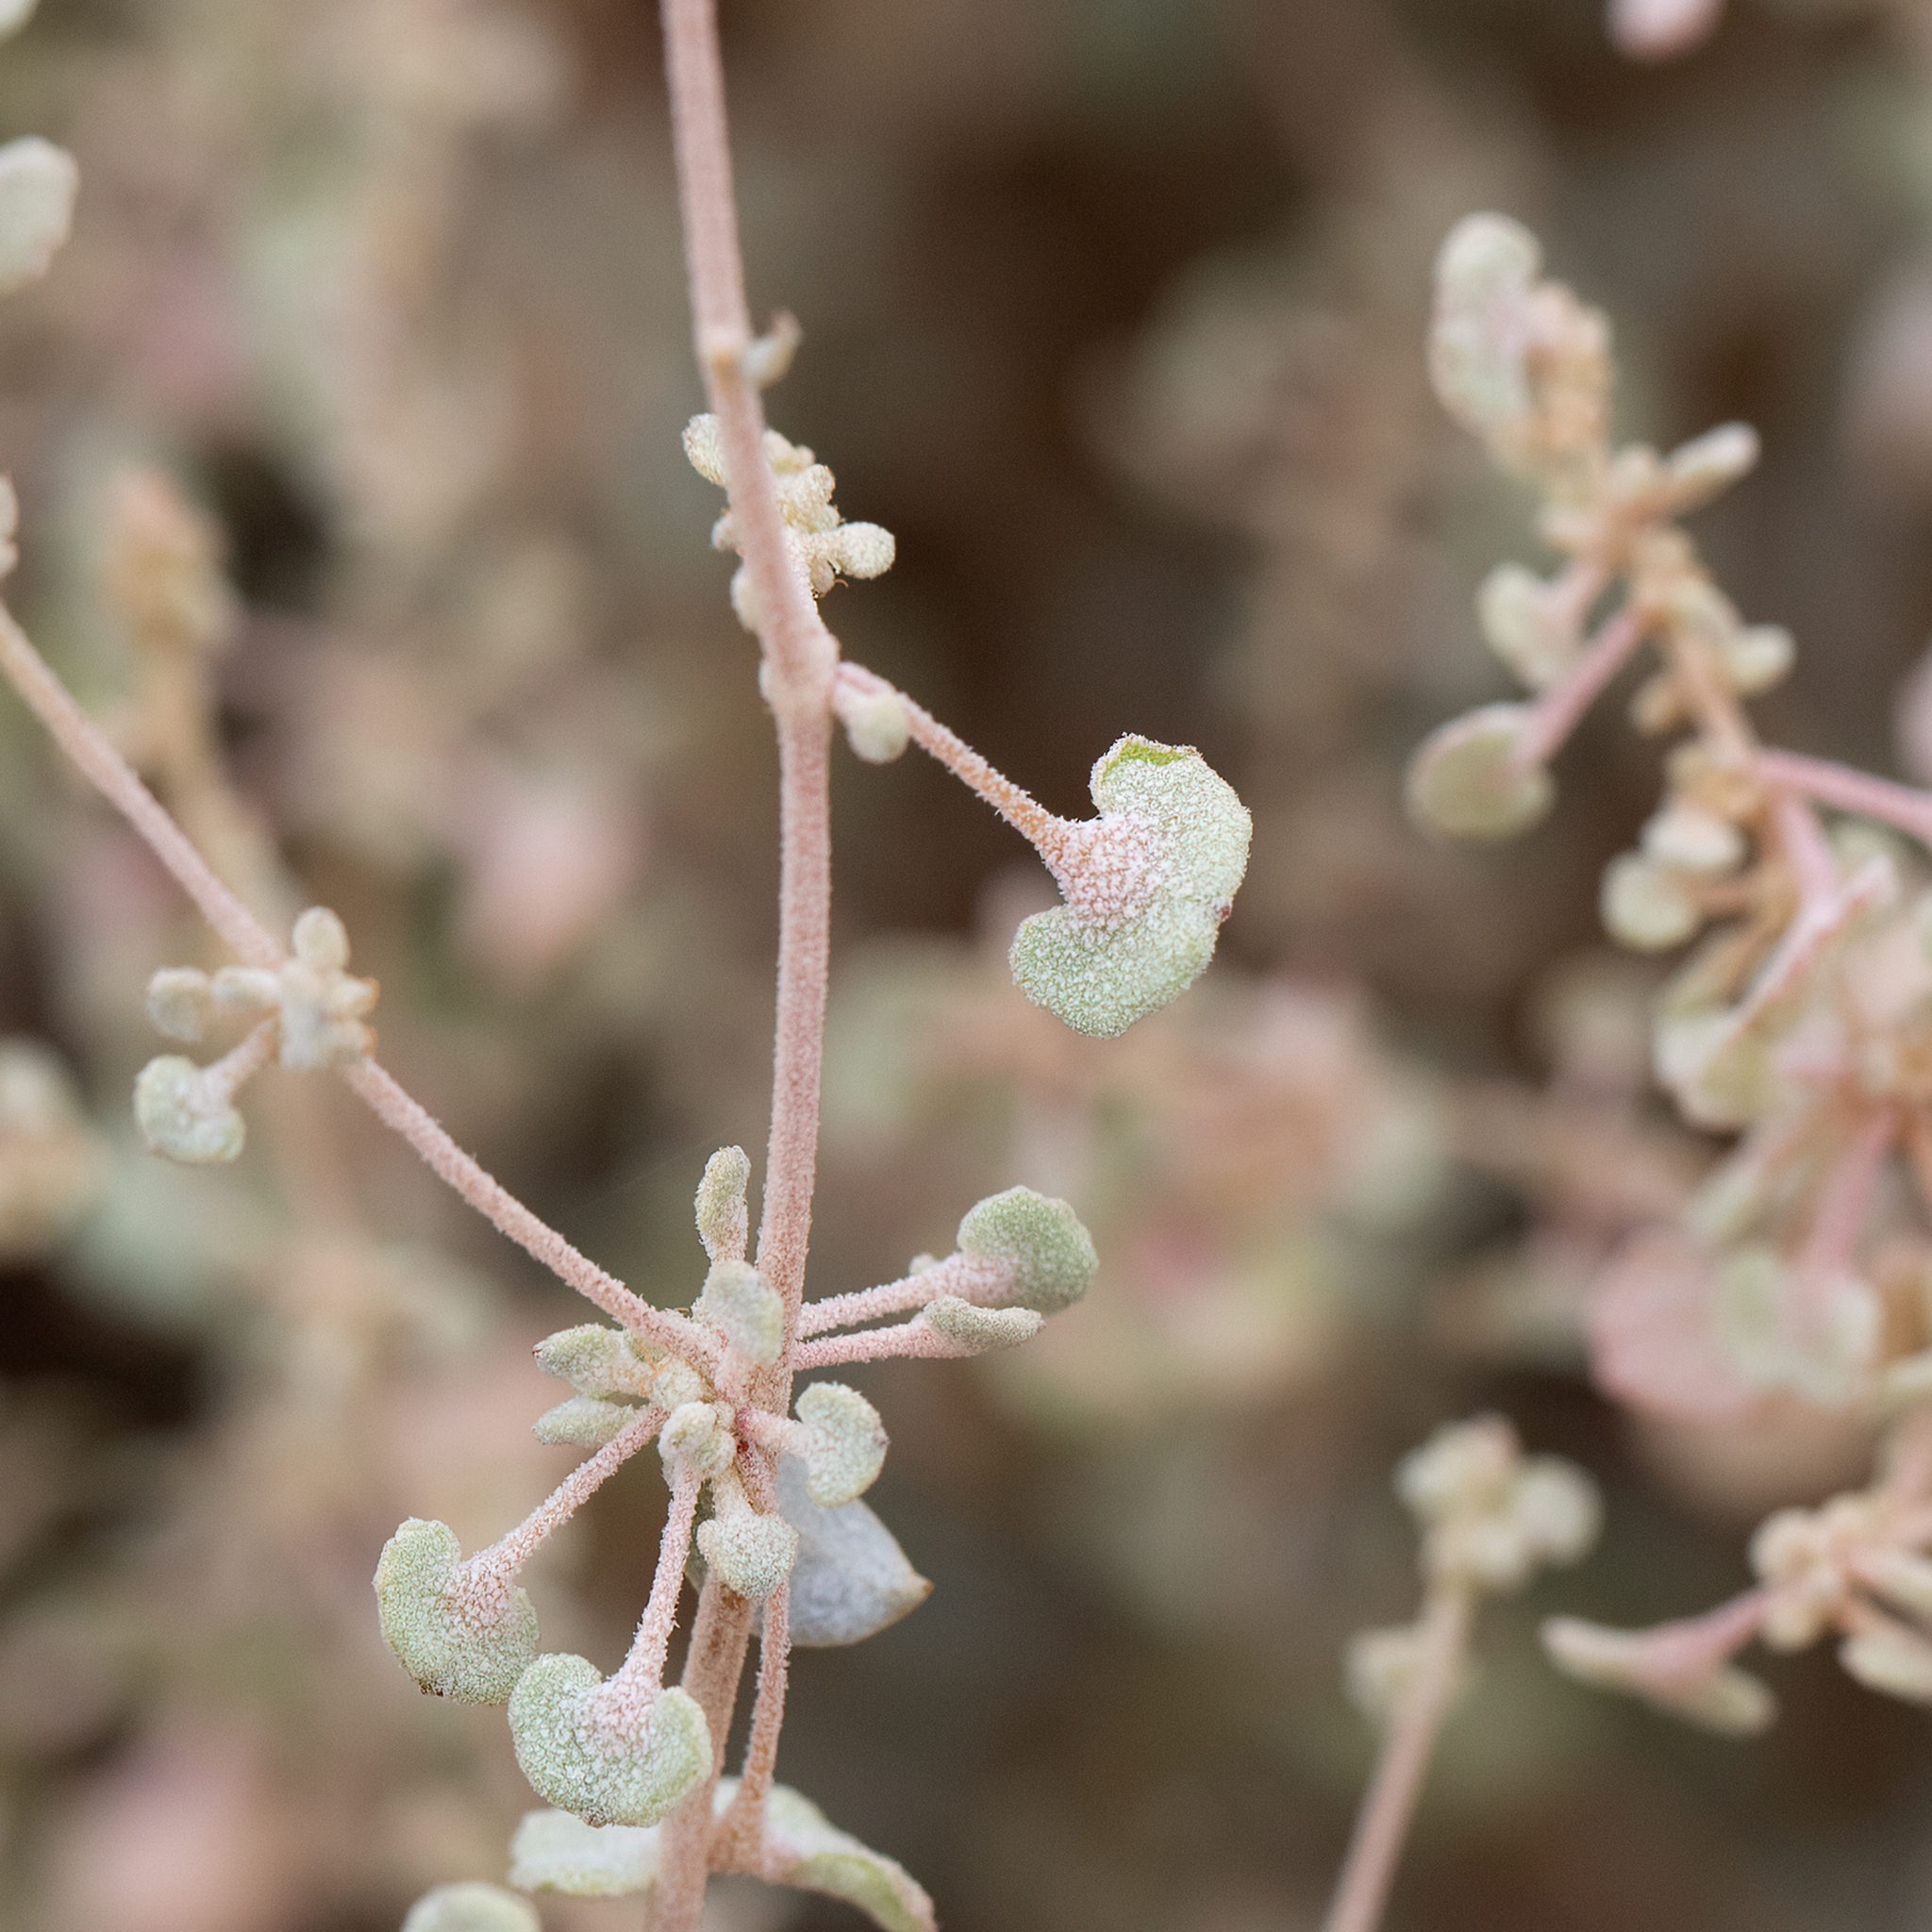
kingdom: Plantae
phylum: Tracheophyta
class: Magnoliopsida
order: Caryophyllales
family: Amaranthaceae
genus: Atriplex
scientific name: Atriplex stipitata
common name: Mallee saltbush
